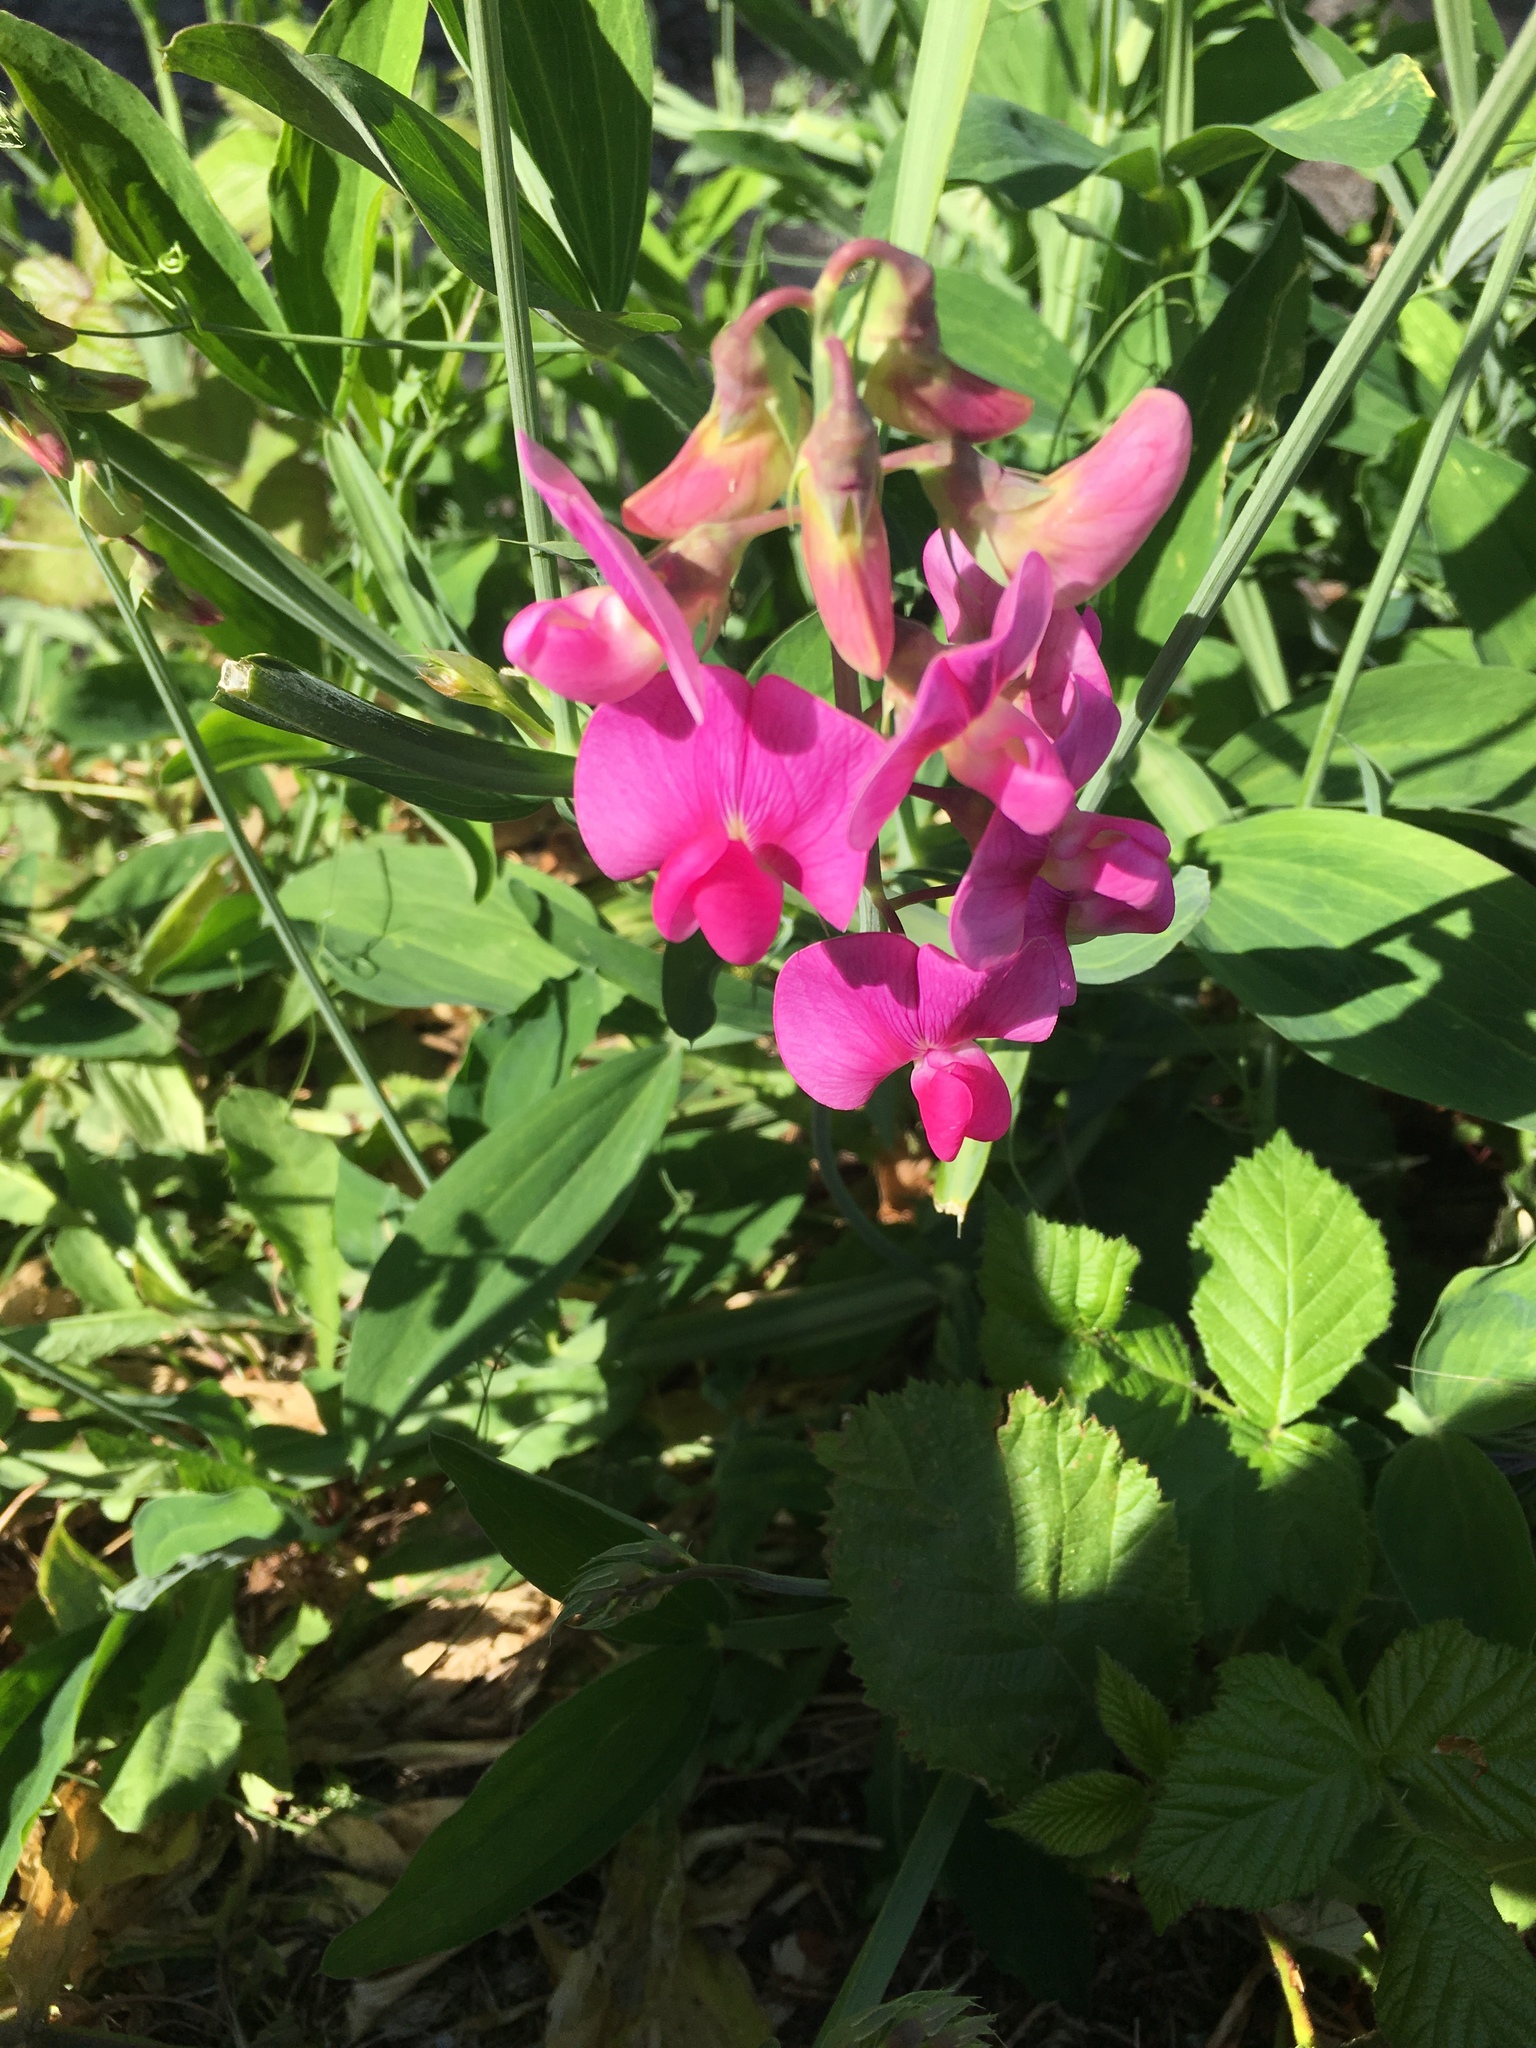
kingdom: Plantae
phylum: Tracheophyta
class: Magnoliopsida
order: Fabales
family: Fabaceae
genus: Lathyrus
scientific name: Lathyrus latifolius
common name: Perennial pea
